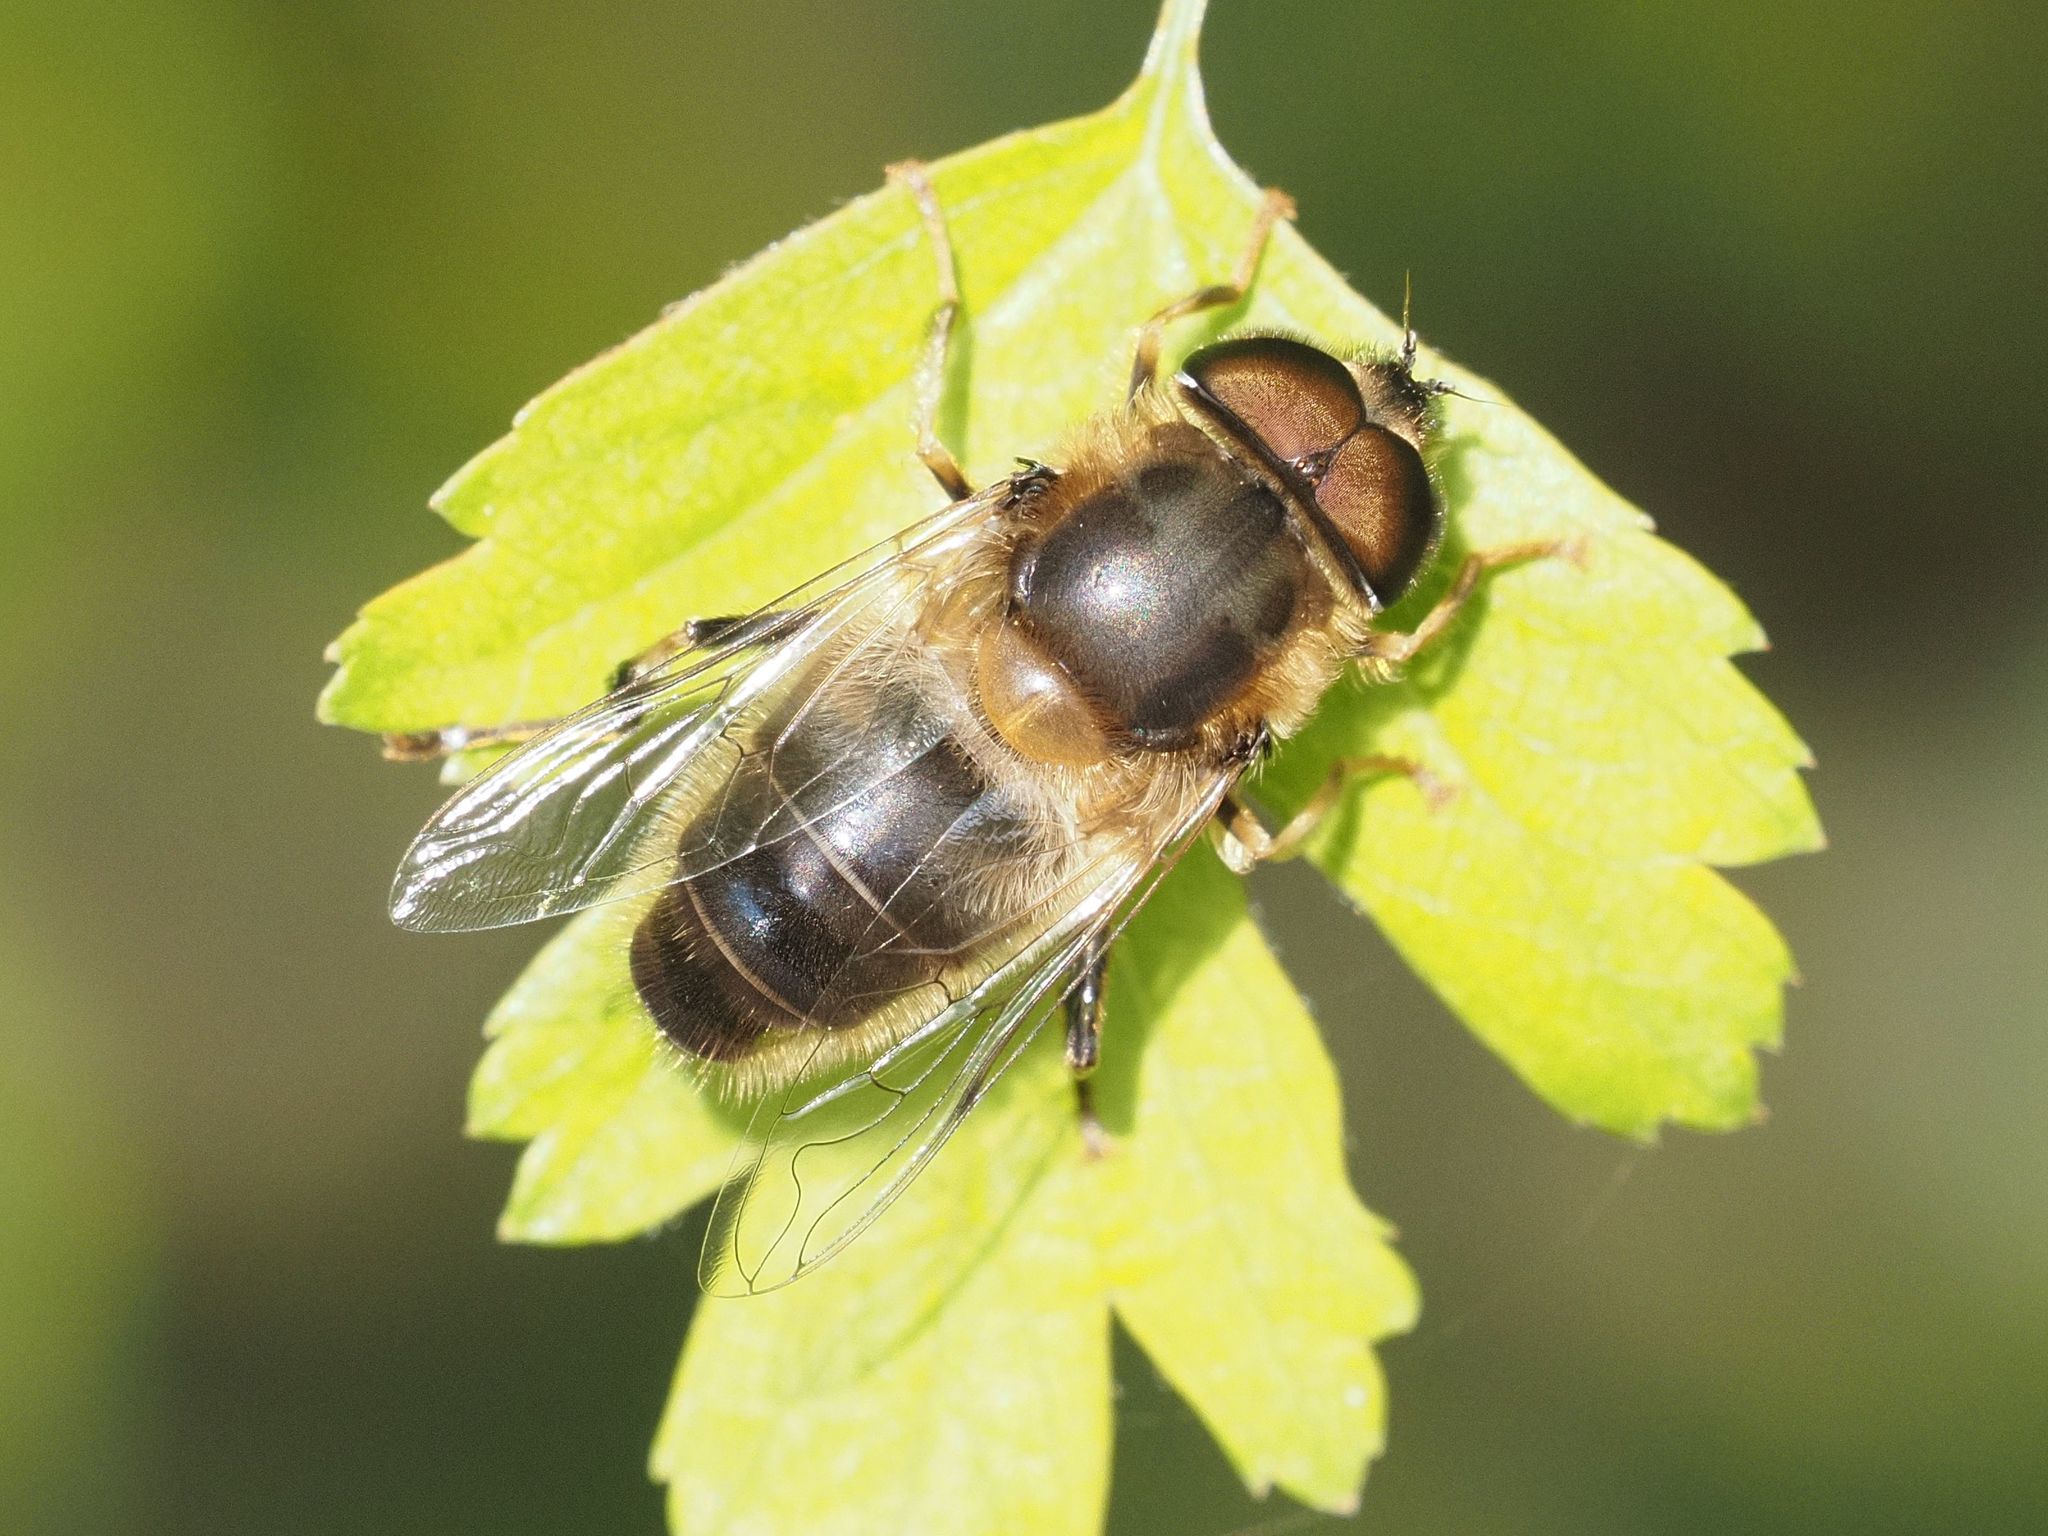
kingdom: Animalia
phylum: Arthropoda
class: Insecta
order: Diptera
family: Syrphidae
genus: Eristalis
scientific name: Eristalis pertinax
